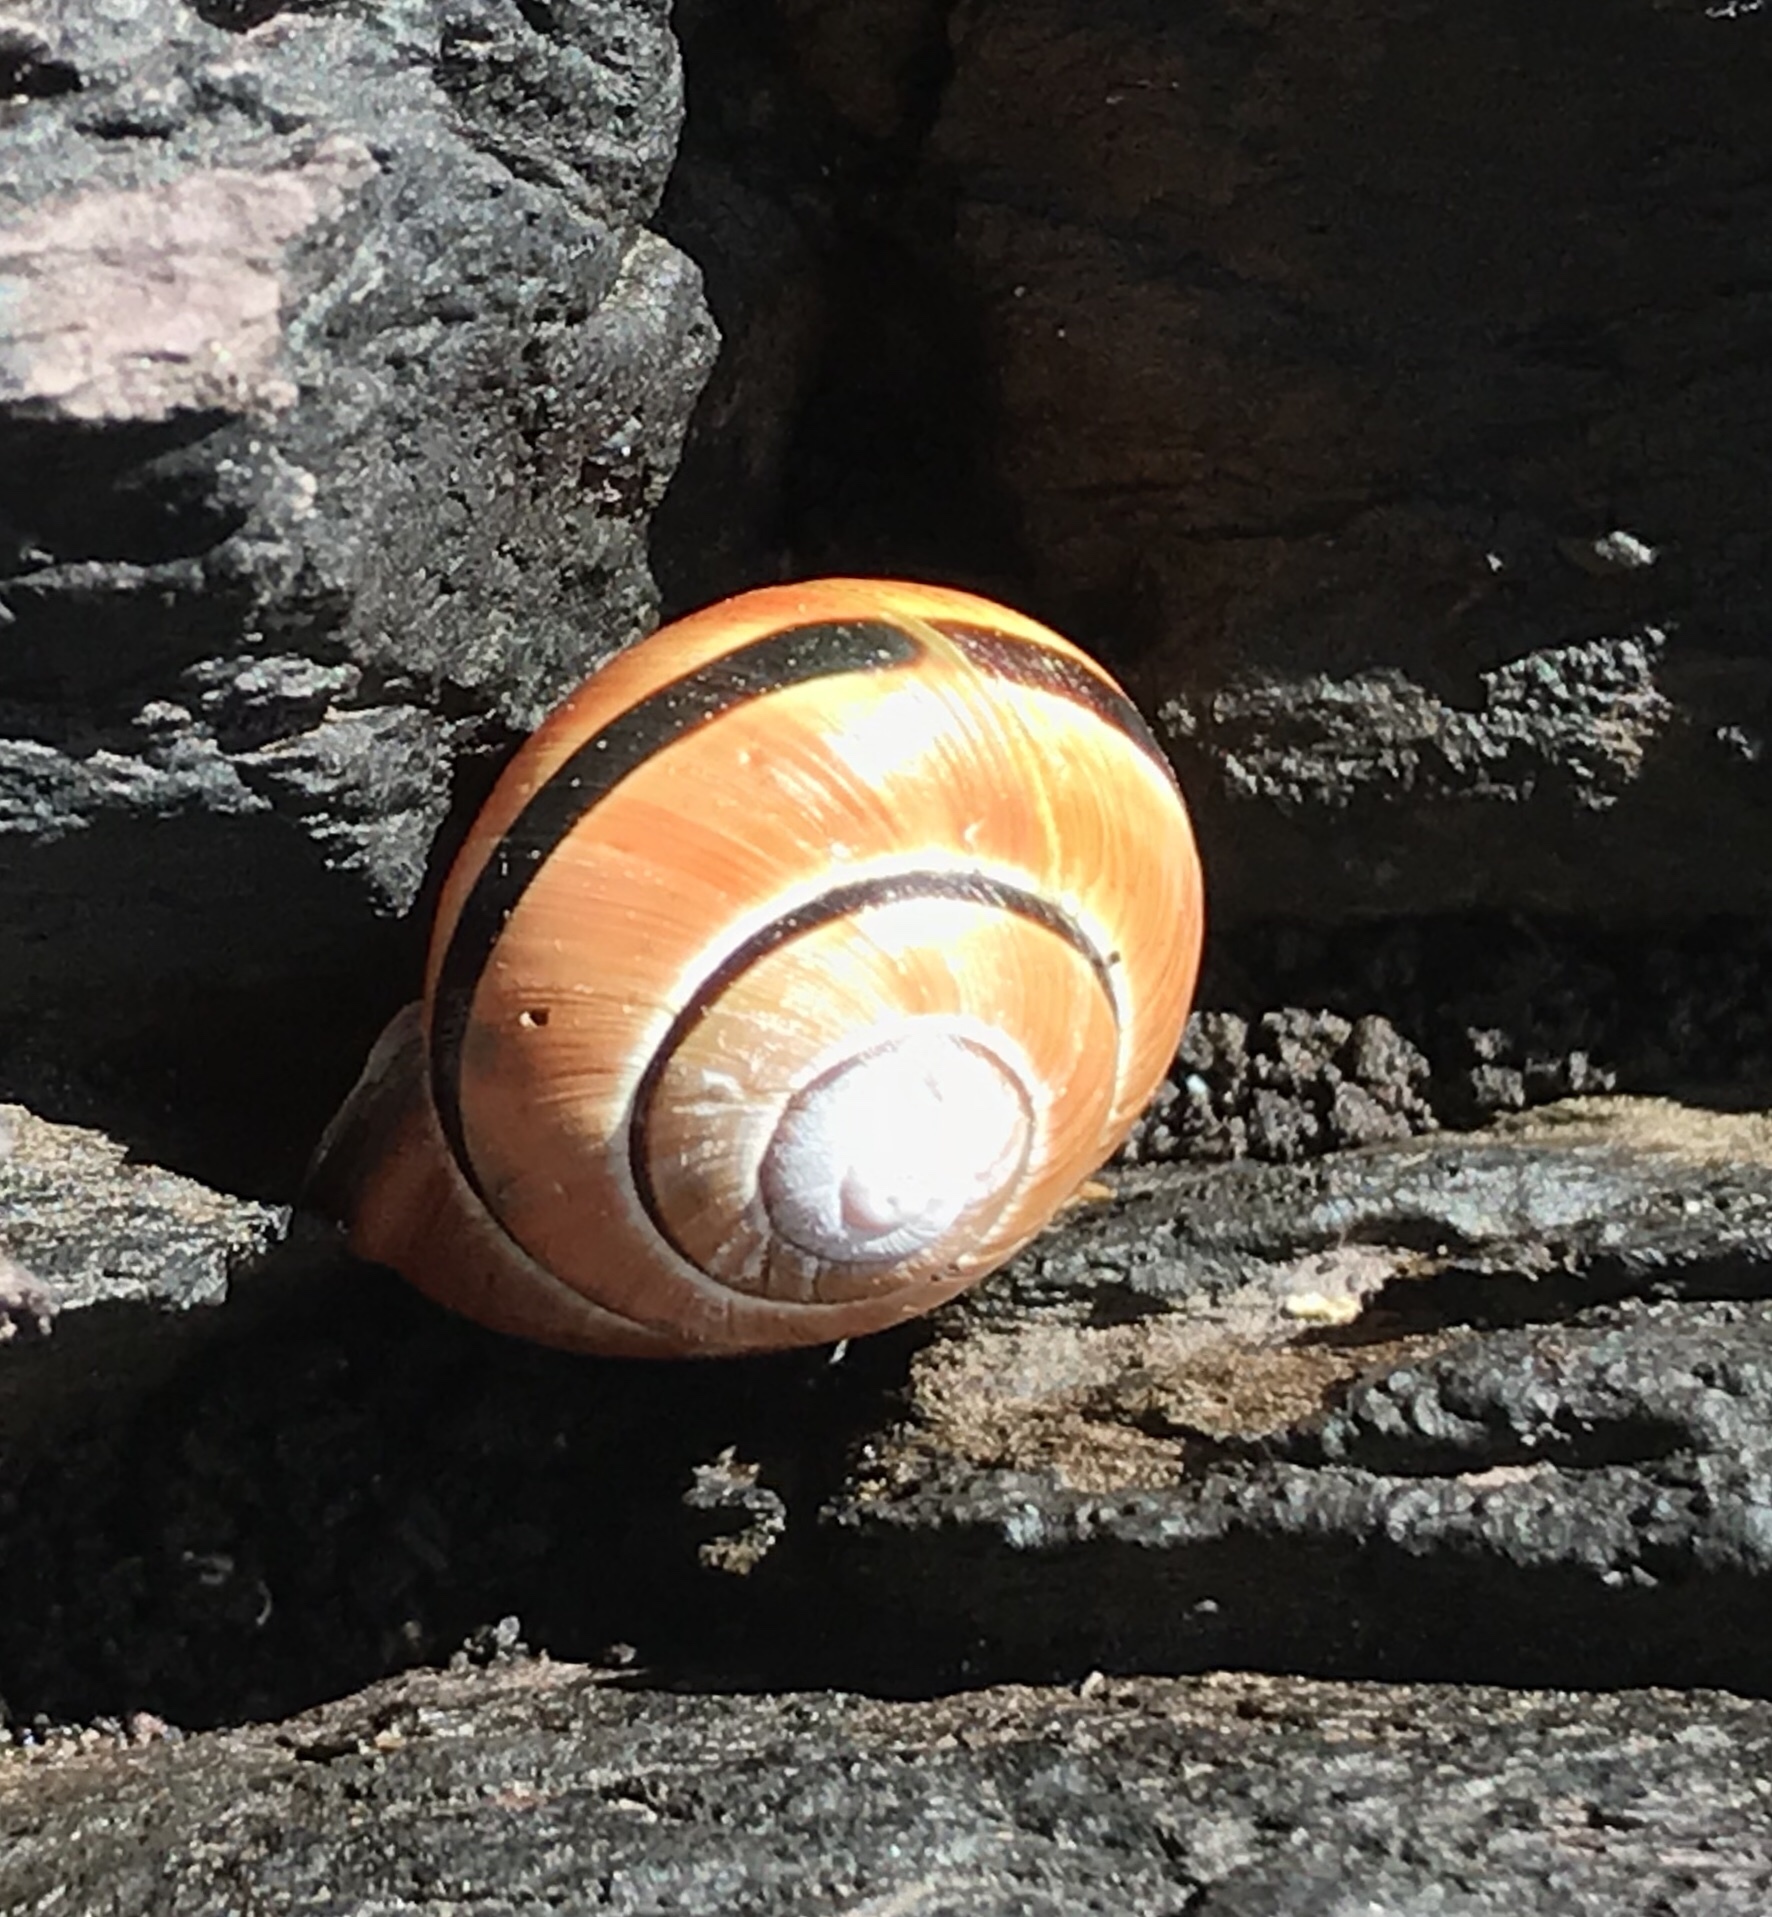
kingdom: Animalia
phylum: Mollusca
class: Gastropoda
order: Stylommatophora
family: Helicidae
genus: Cepaea
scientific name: Cepaea nemoralis
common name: Grovesnail
